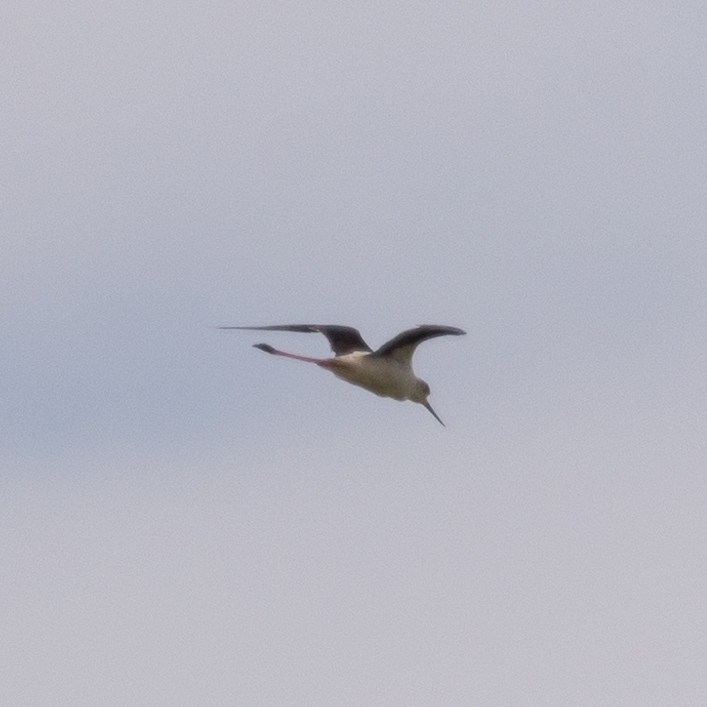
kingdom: Animalia
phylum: Chordata
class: Aves
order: Charadriiformes
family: Recurvirostridae
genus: Himantopus
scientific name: Himantopus himantopus
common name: Black-winged stilt
